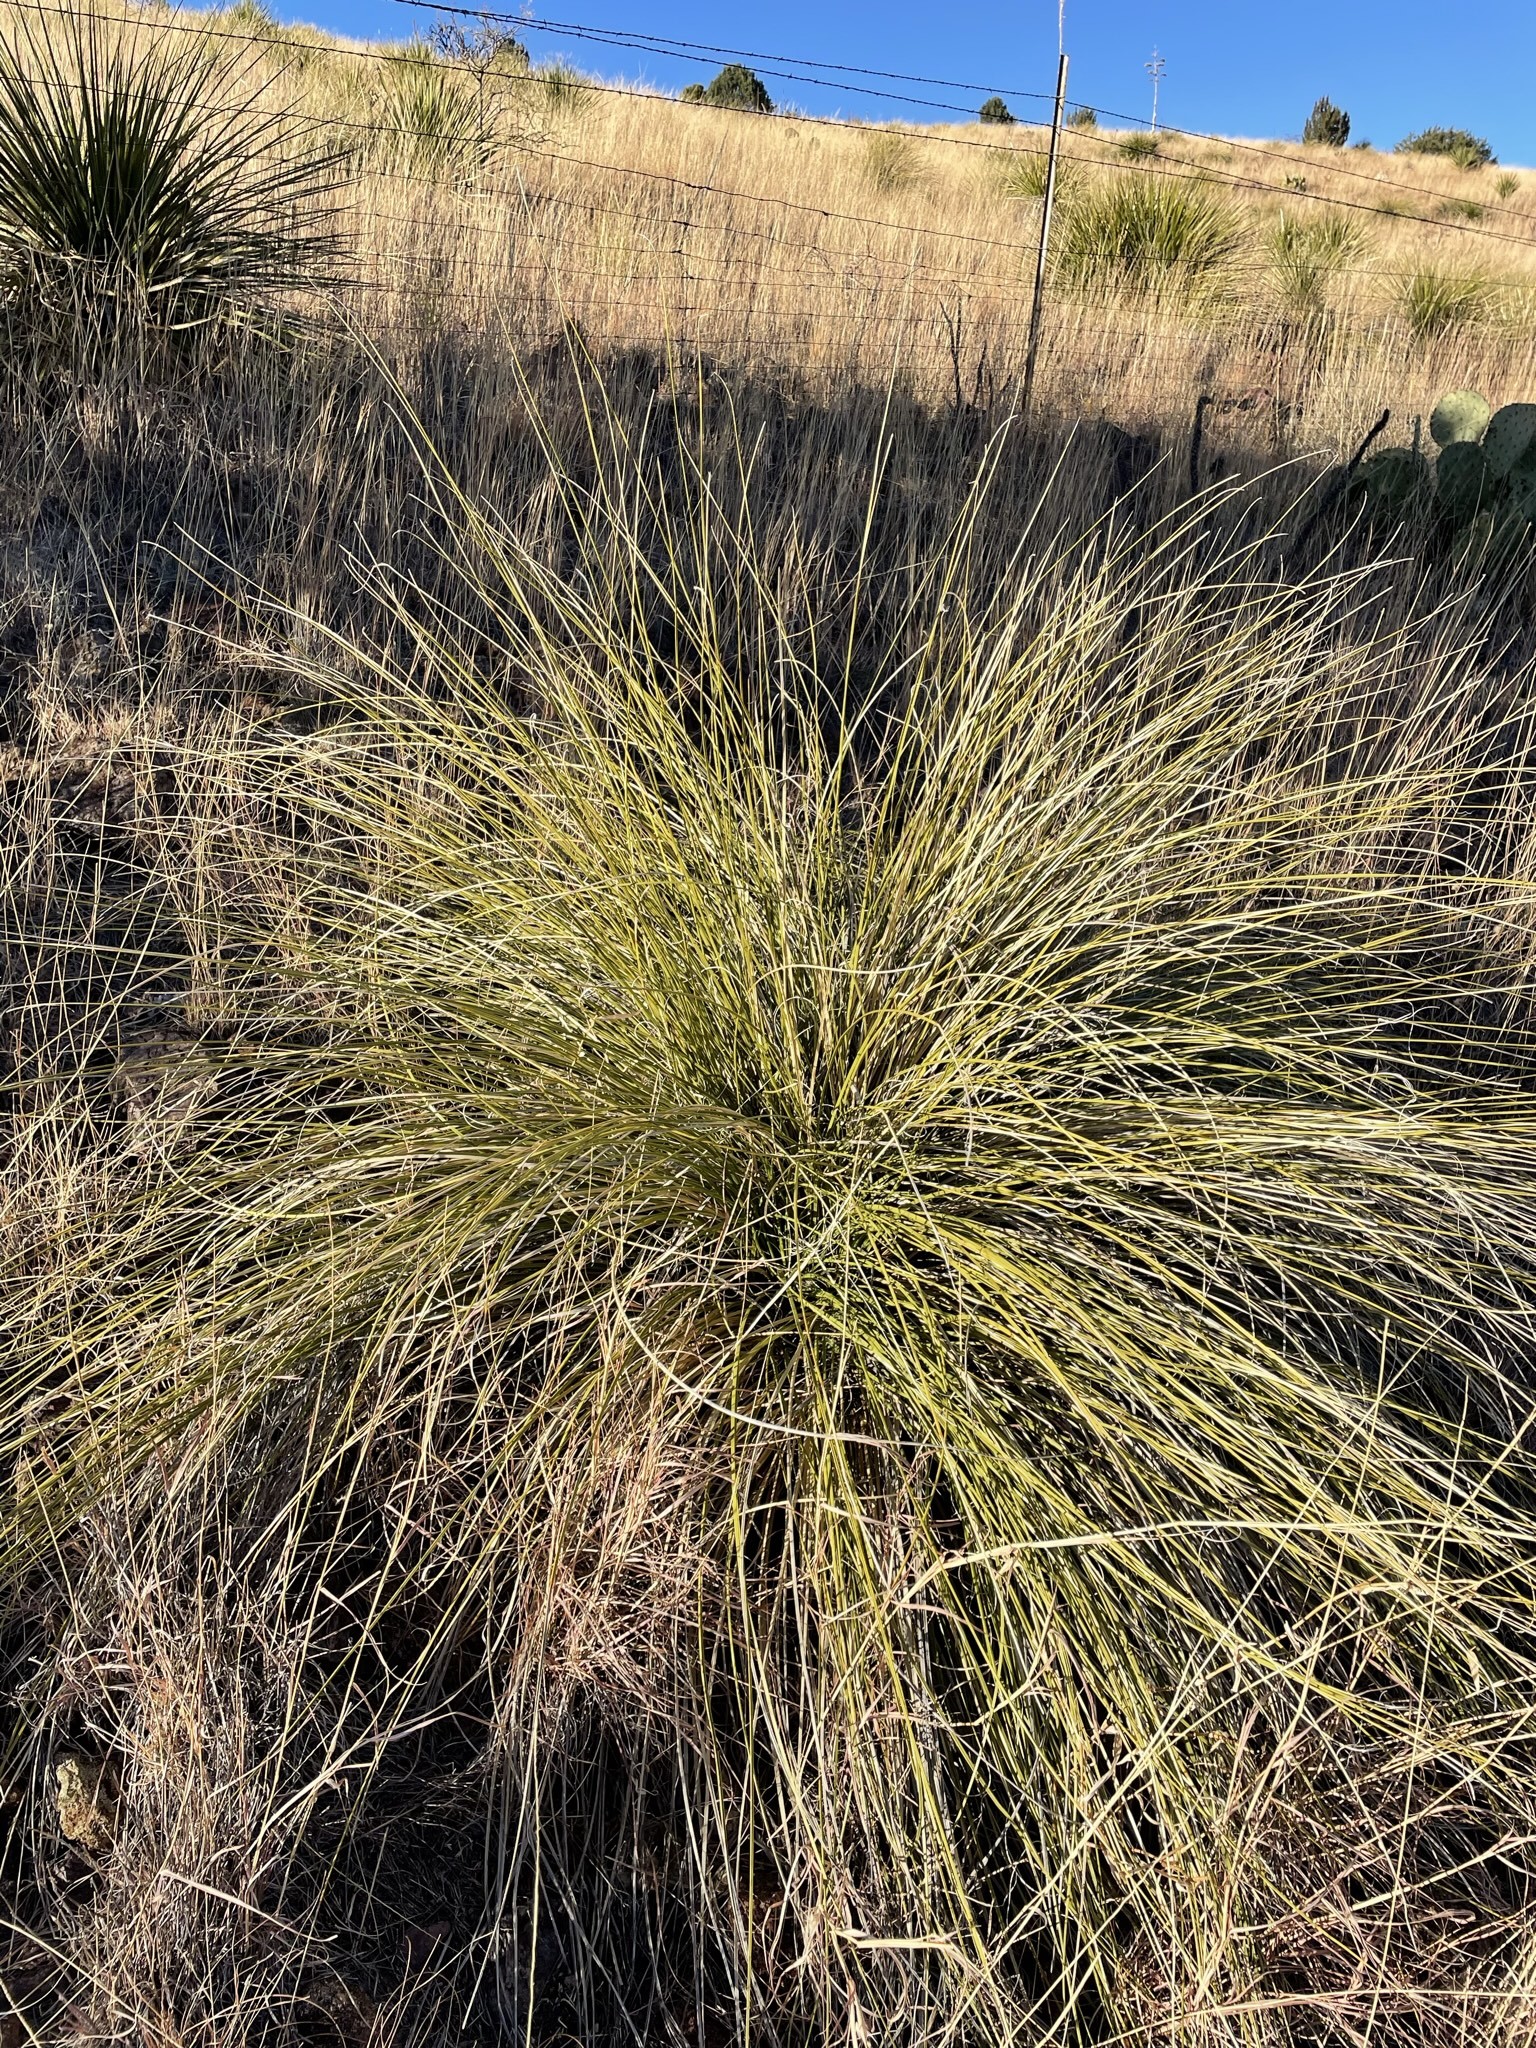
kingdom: Plantae
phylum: Tracheophyta
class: Liliopsida
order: Asparagales
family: Asparagaceae
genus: Nolina
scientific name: Nolina texana
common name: Texas sacahuiste
